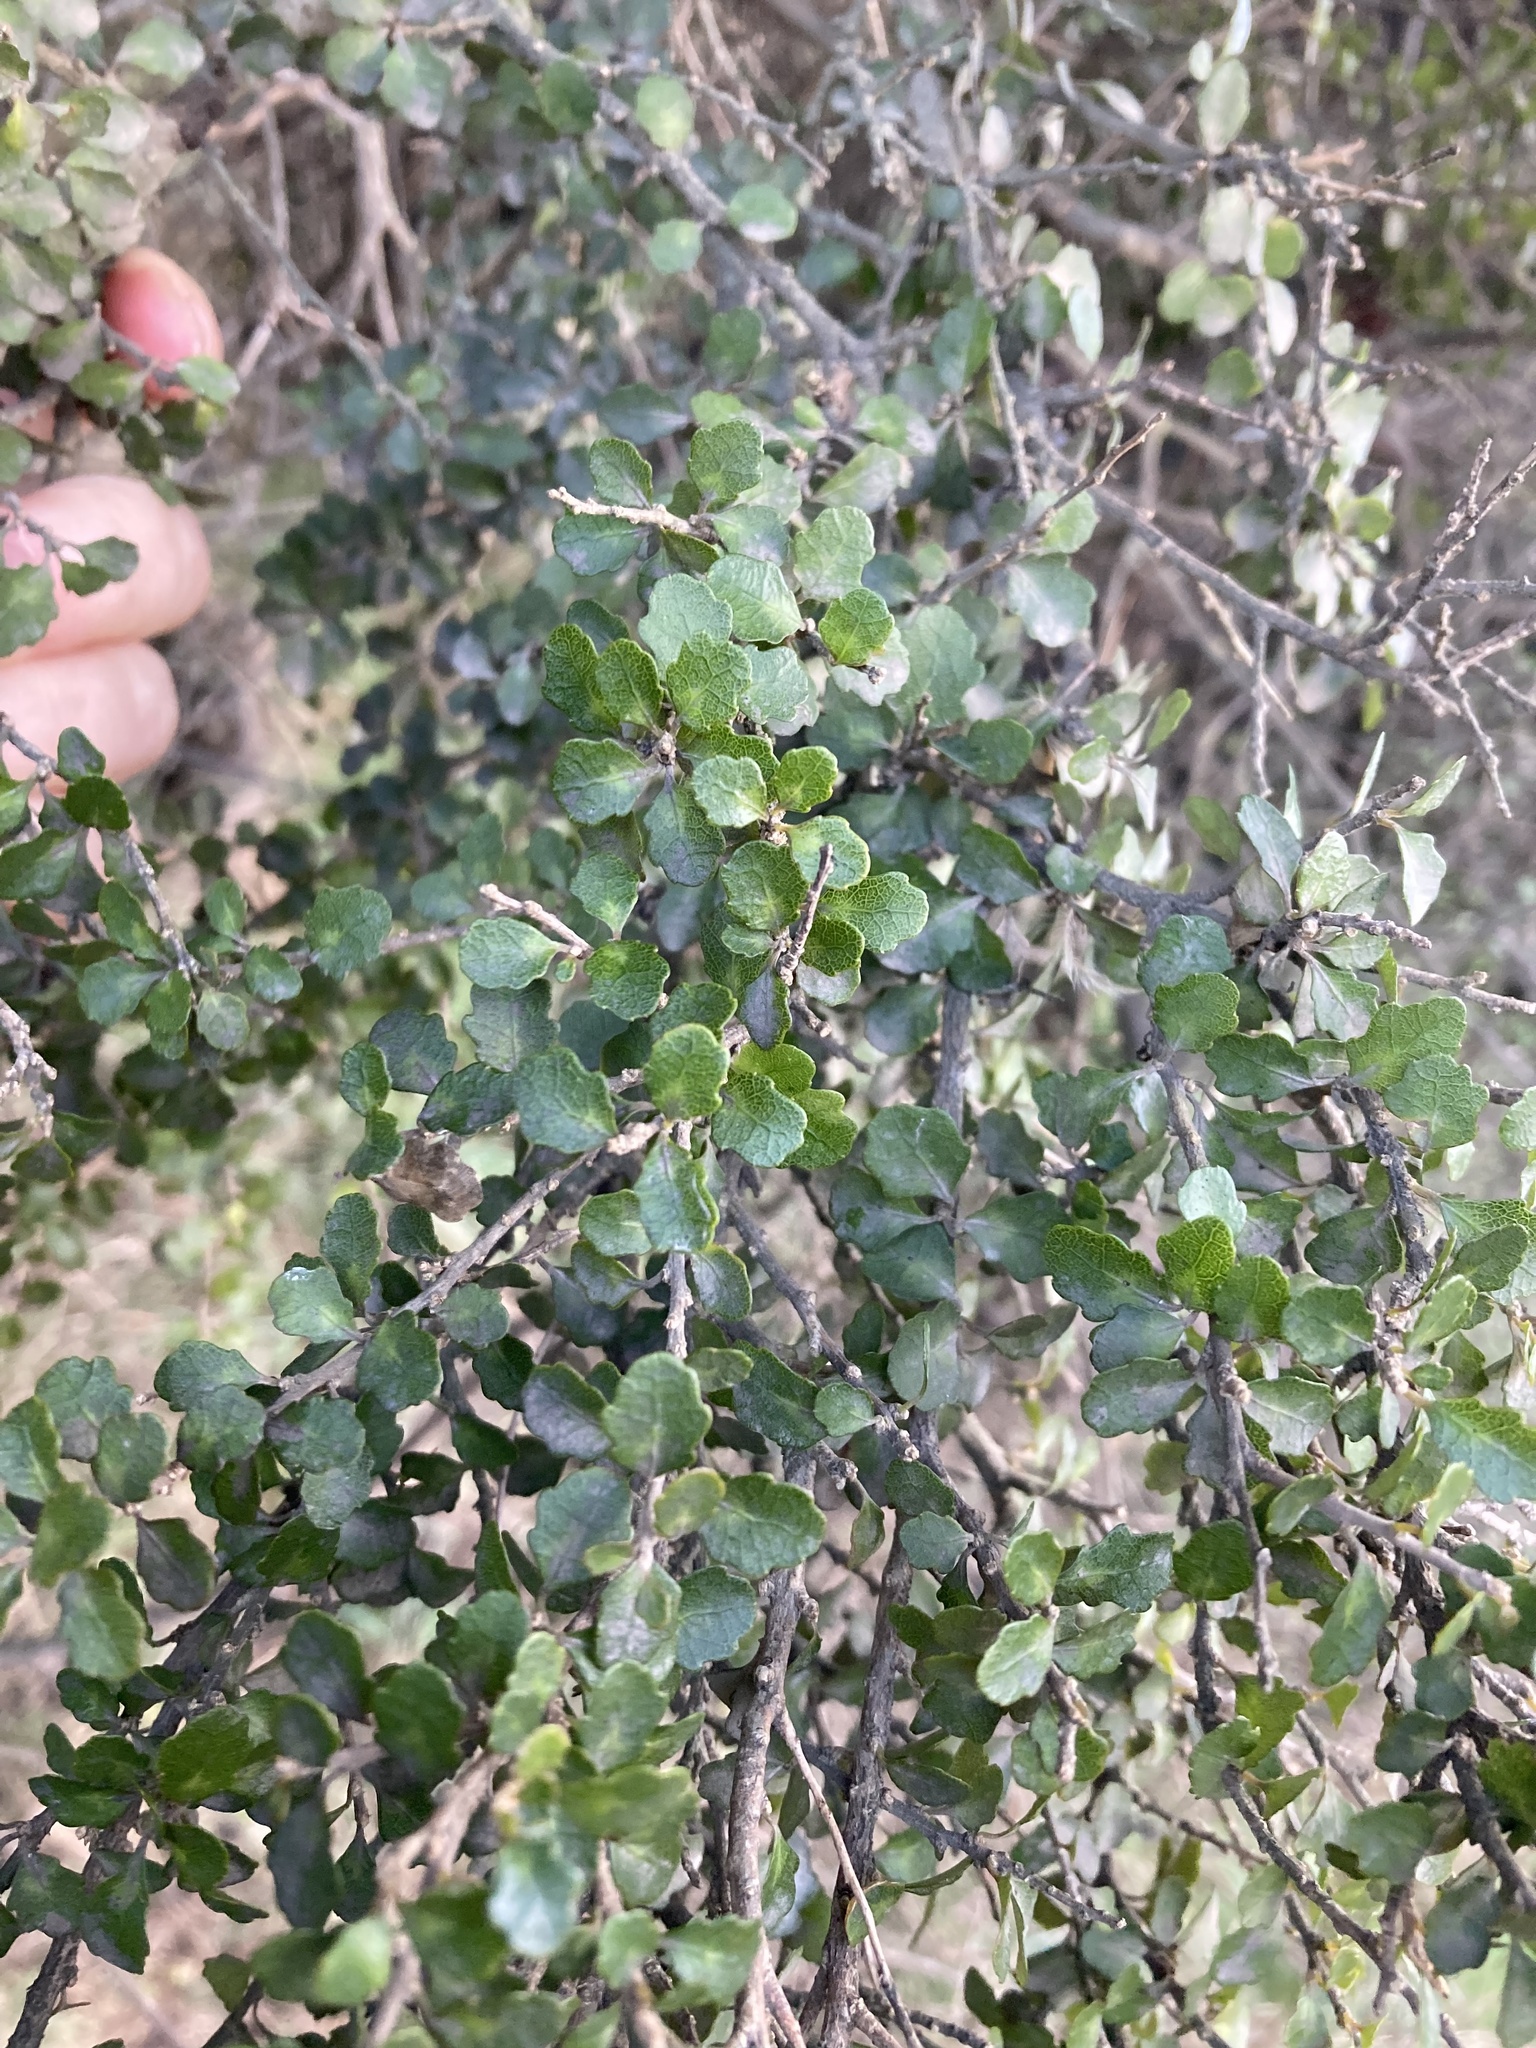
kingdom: Plantae
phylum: Tracheophyta
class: Magnoliopsida
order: Malpighiales
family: Violaceae
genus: Melicytus
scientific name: Melicytus micranthus
